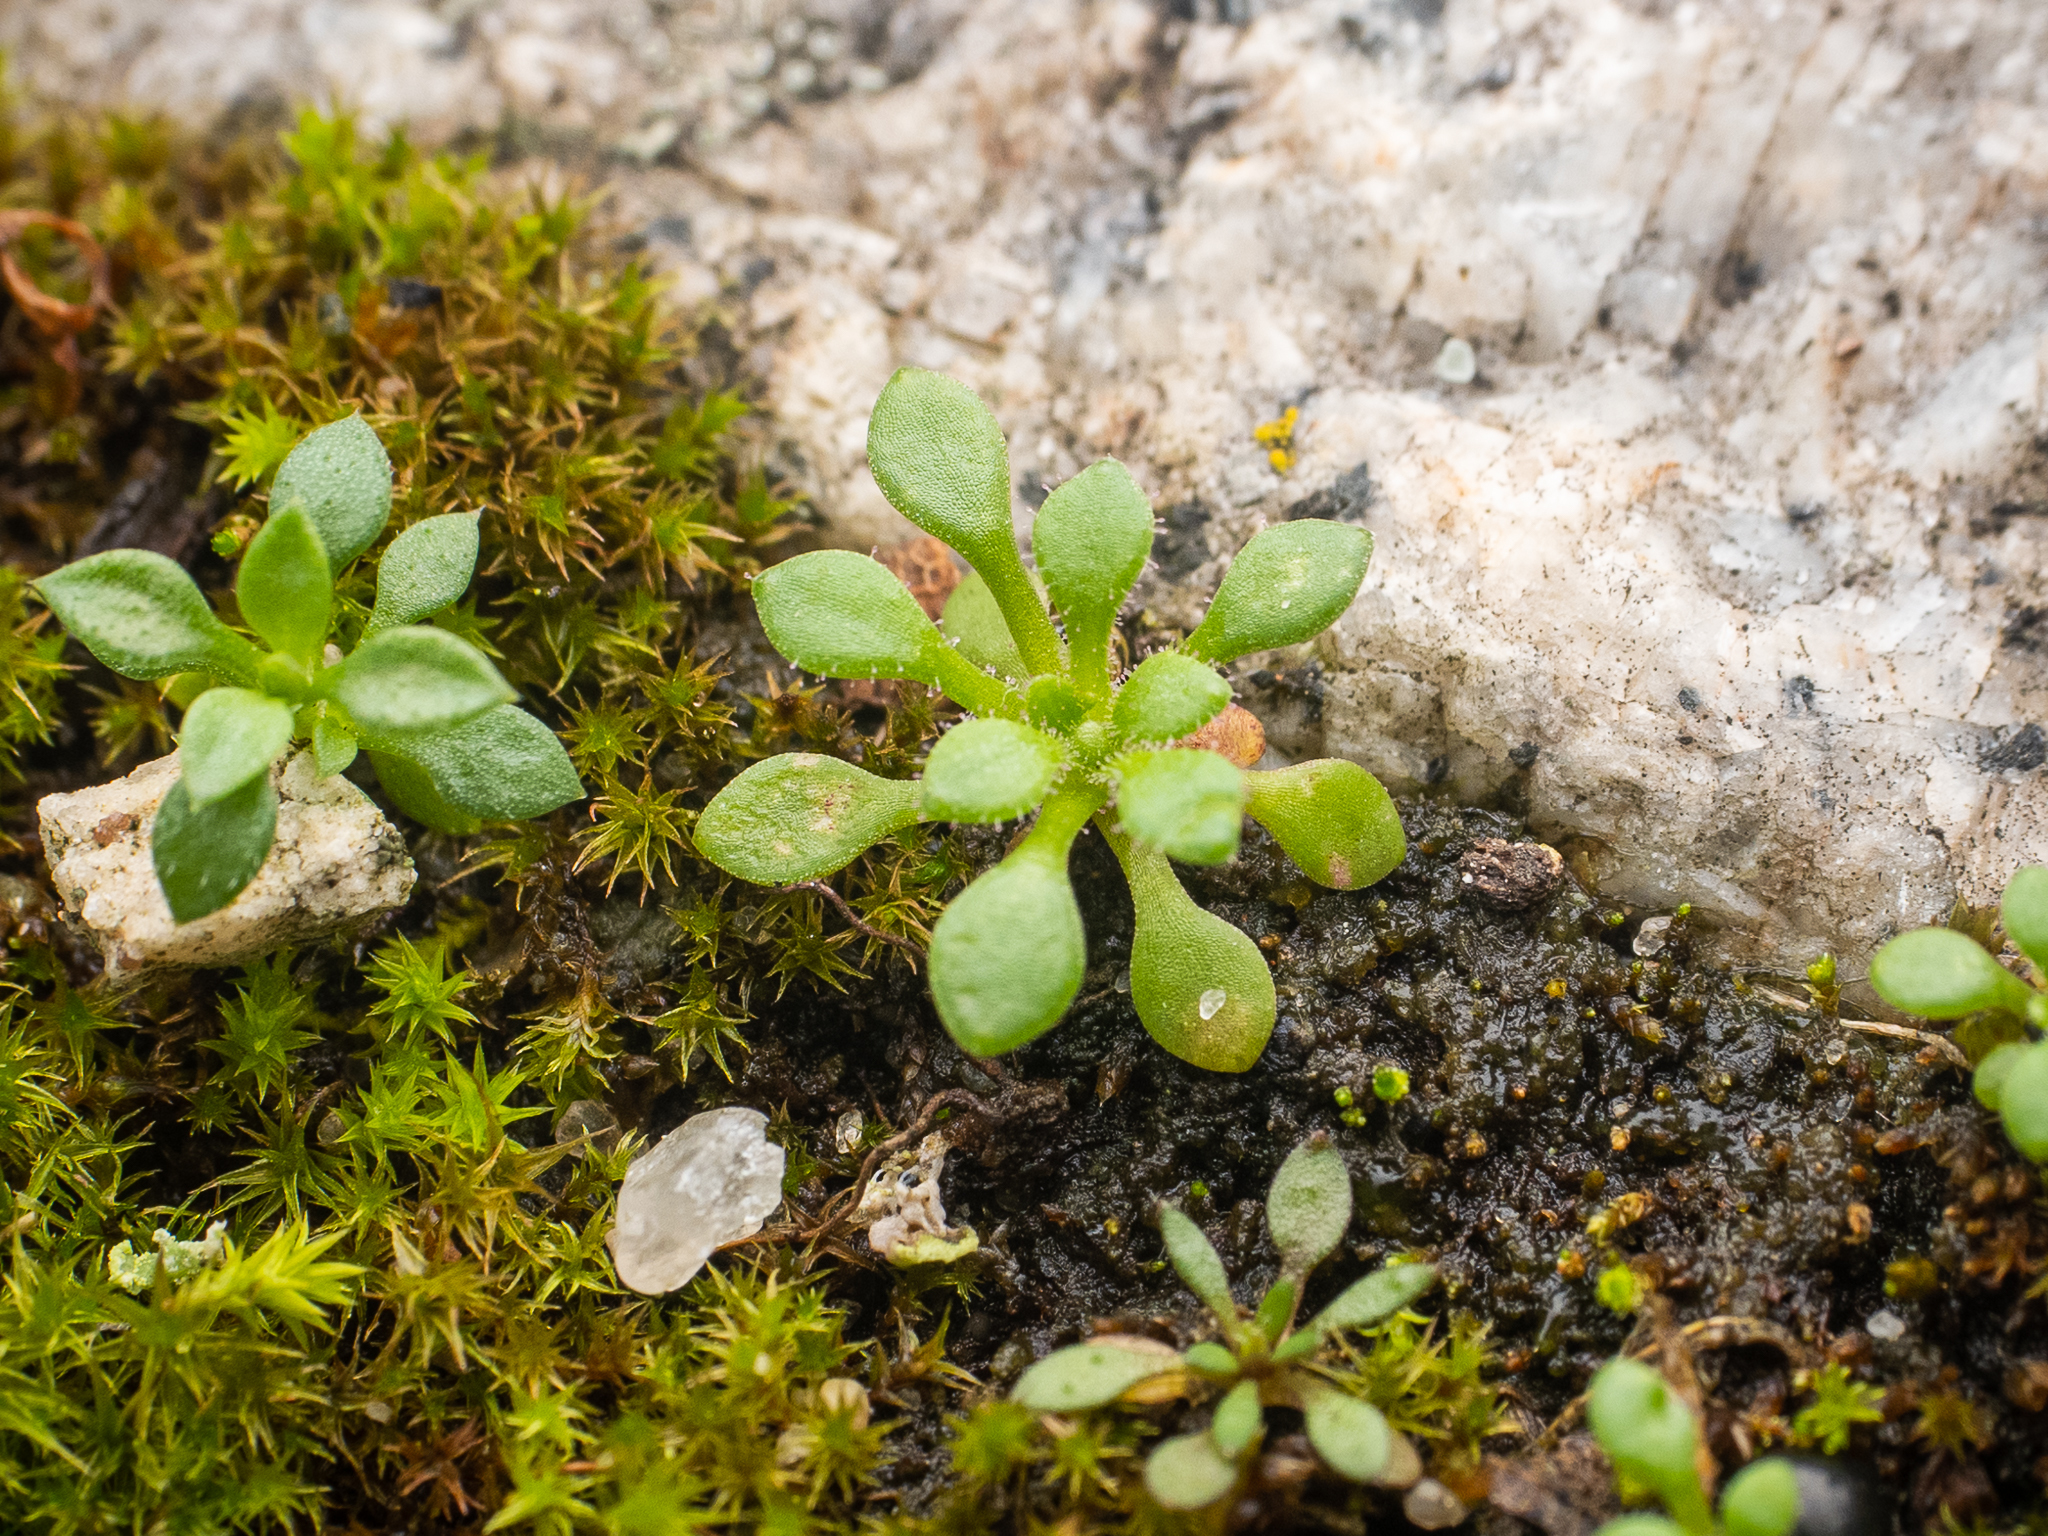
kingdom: Plantae
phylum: Tracheophyta
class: Magnoliopsida
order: Saxifragales
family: Saxifragaceae
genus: Saxifraga
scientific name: Saxifraga tridactylites
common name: Rue-leaved saxifrage
